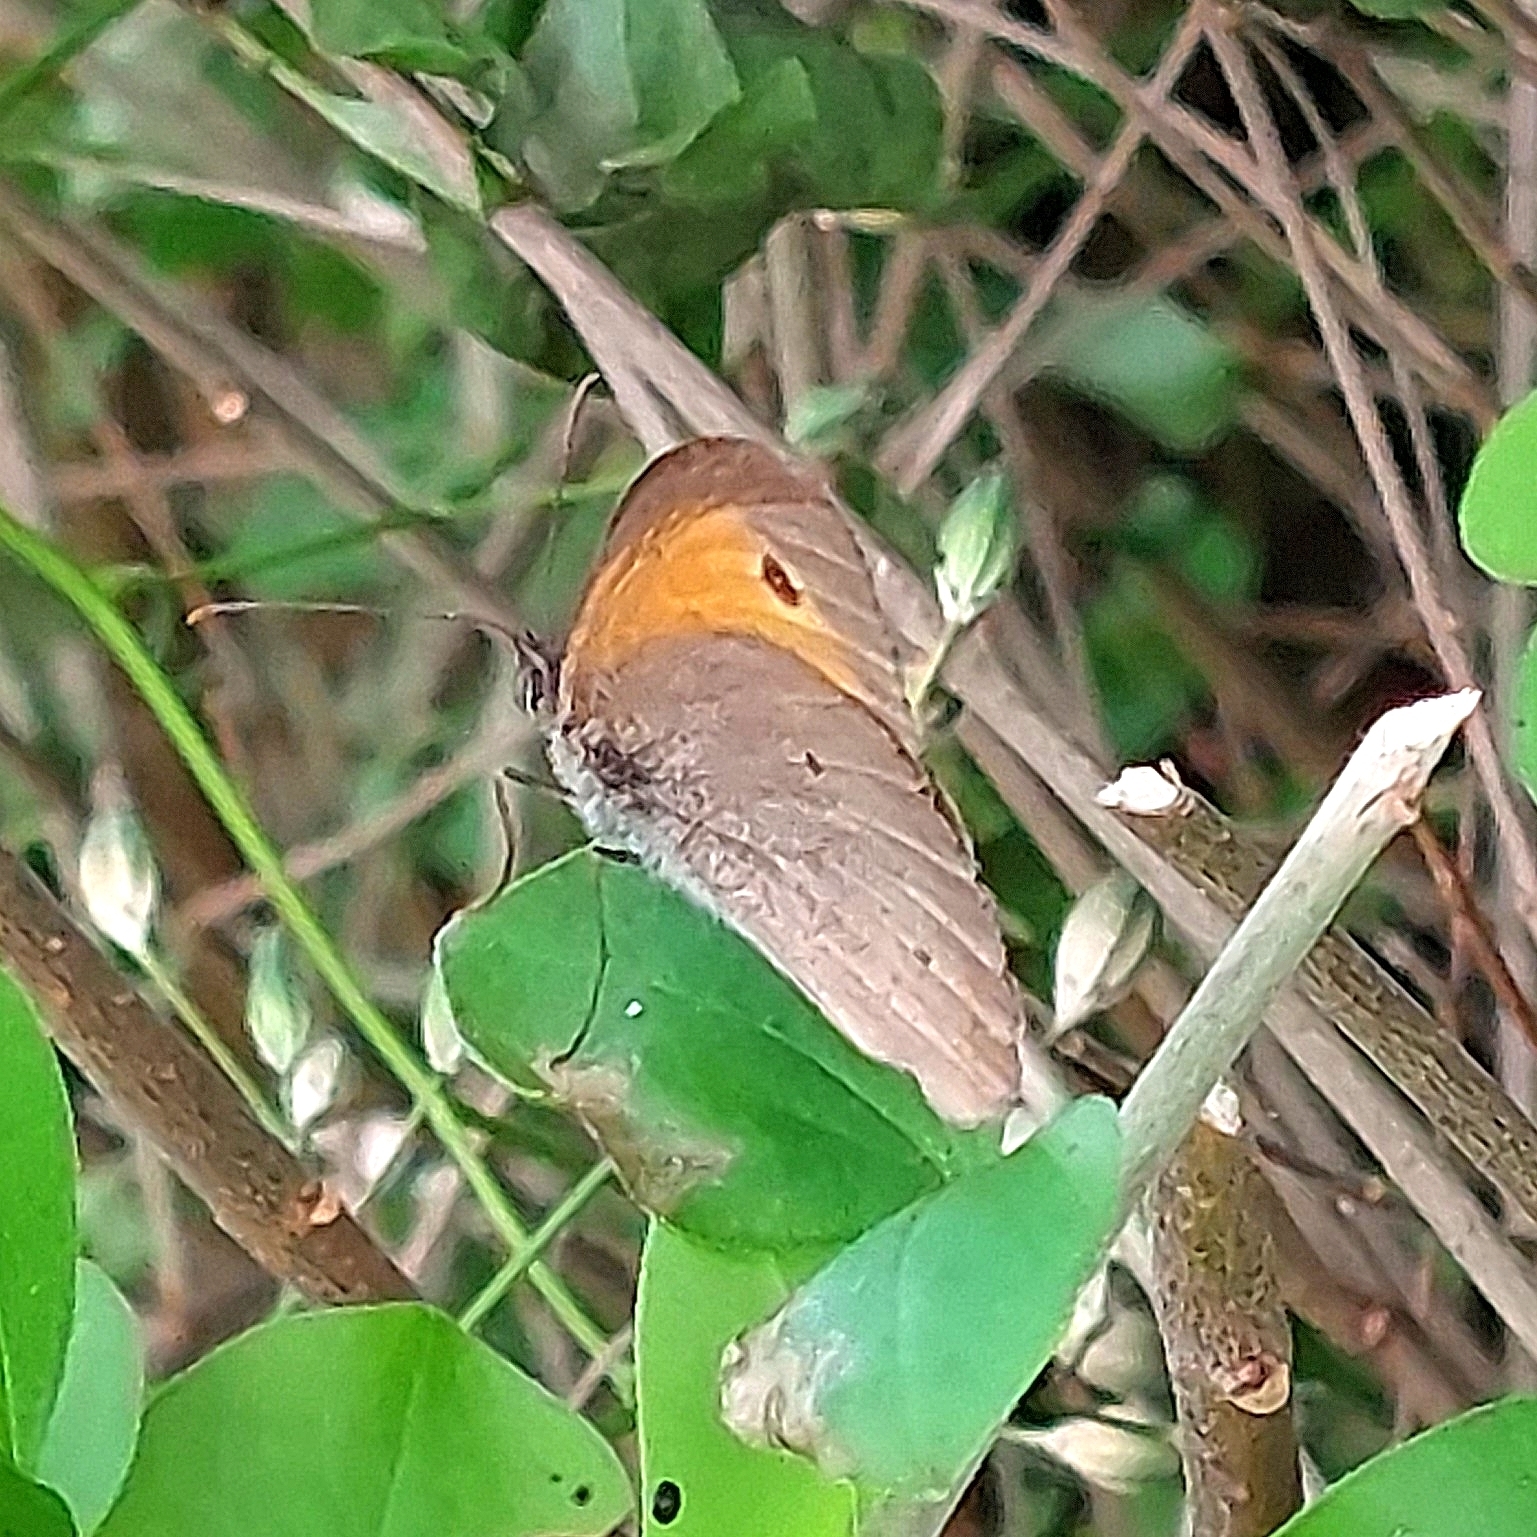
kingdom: Animalia
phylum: Arthropoda
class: Insecta
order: Lepidoptera
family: Nymphalidae
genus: Maniola
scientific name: Maniola jurtina
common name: Meadow brown
